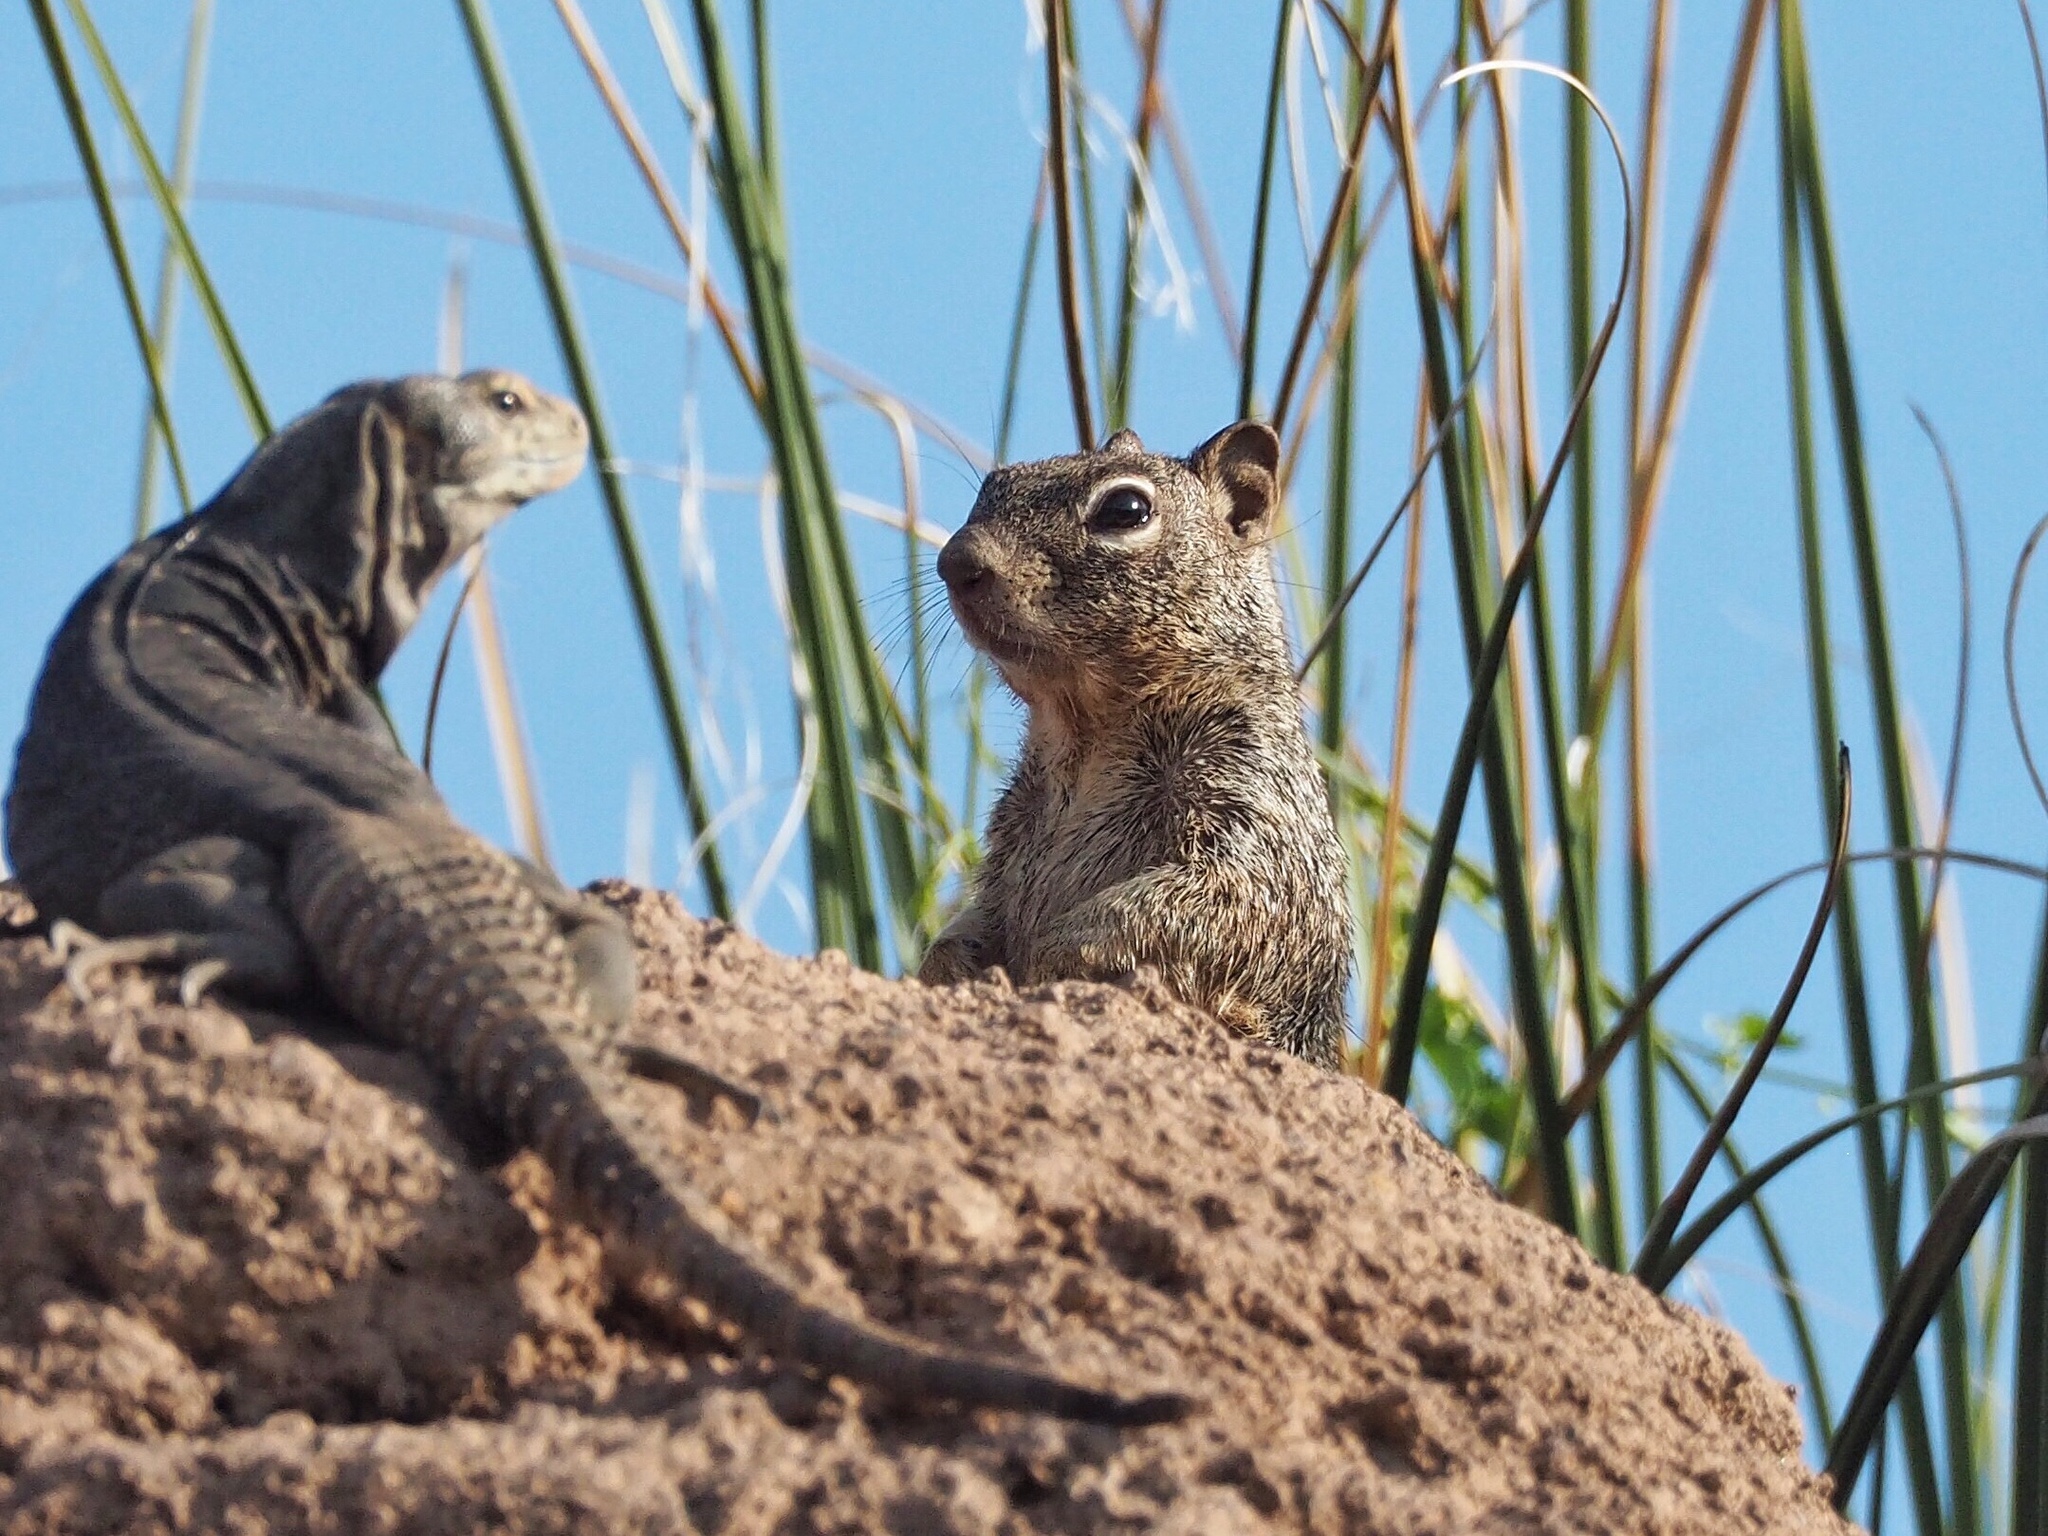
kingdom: Animalia
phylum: Chordata
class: Mammalia
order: Rodentia
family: Sciuridae
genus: Otospermophilus
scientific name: Otospermophilus variegatus
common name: Rock squirrel
